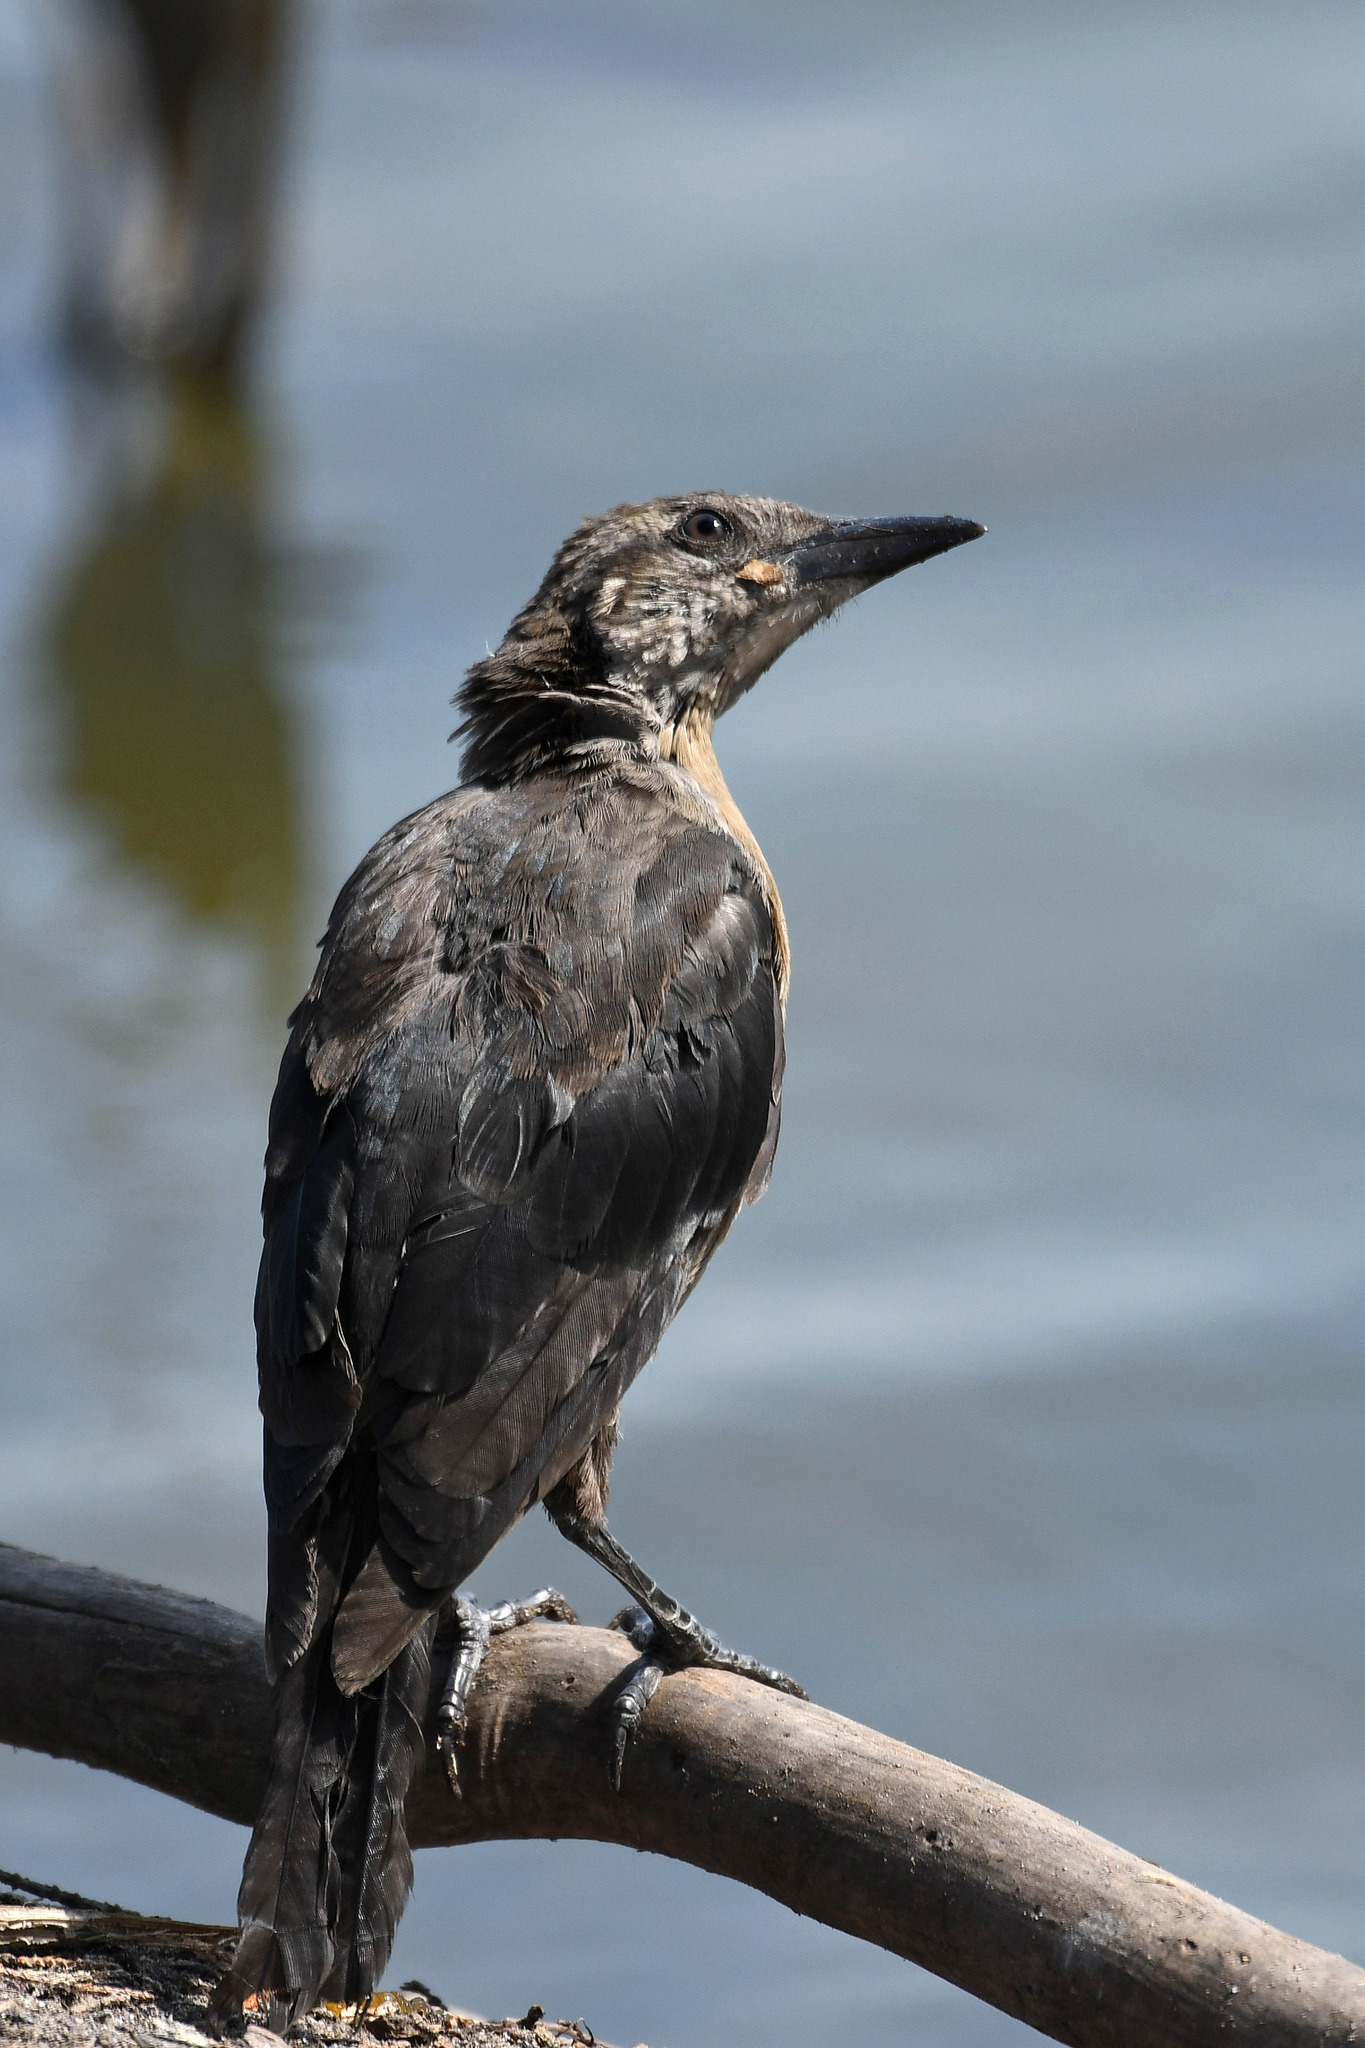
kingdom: Animalia
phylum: Chordata
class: Aves
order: Passeriformes
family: Icteridae
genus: Quiscalus
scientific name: Quiscalus mexicanus
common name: Great-tailed grackle
